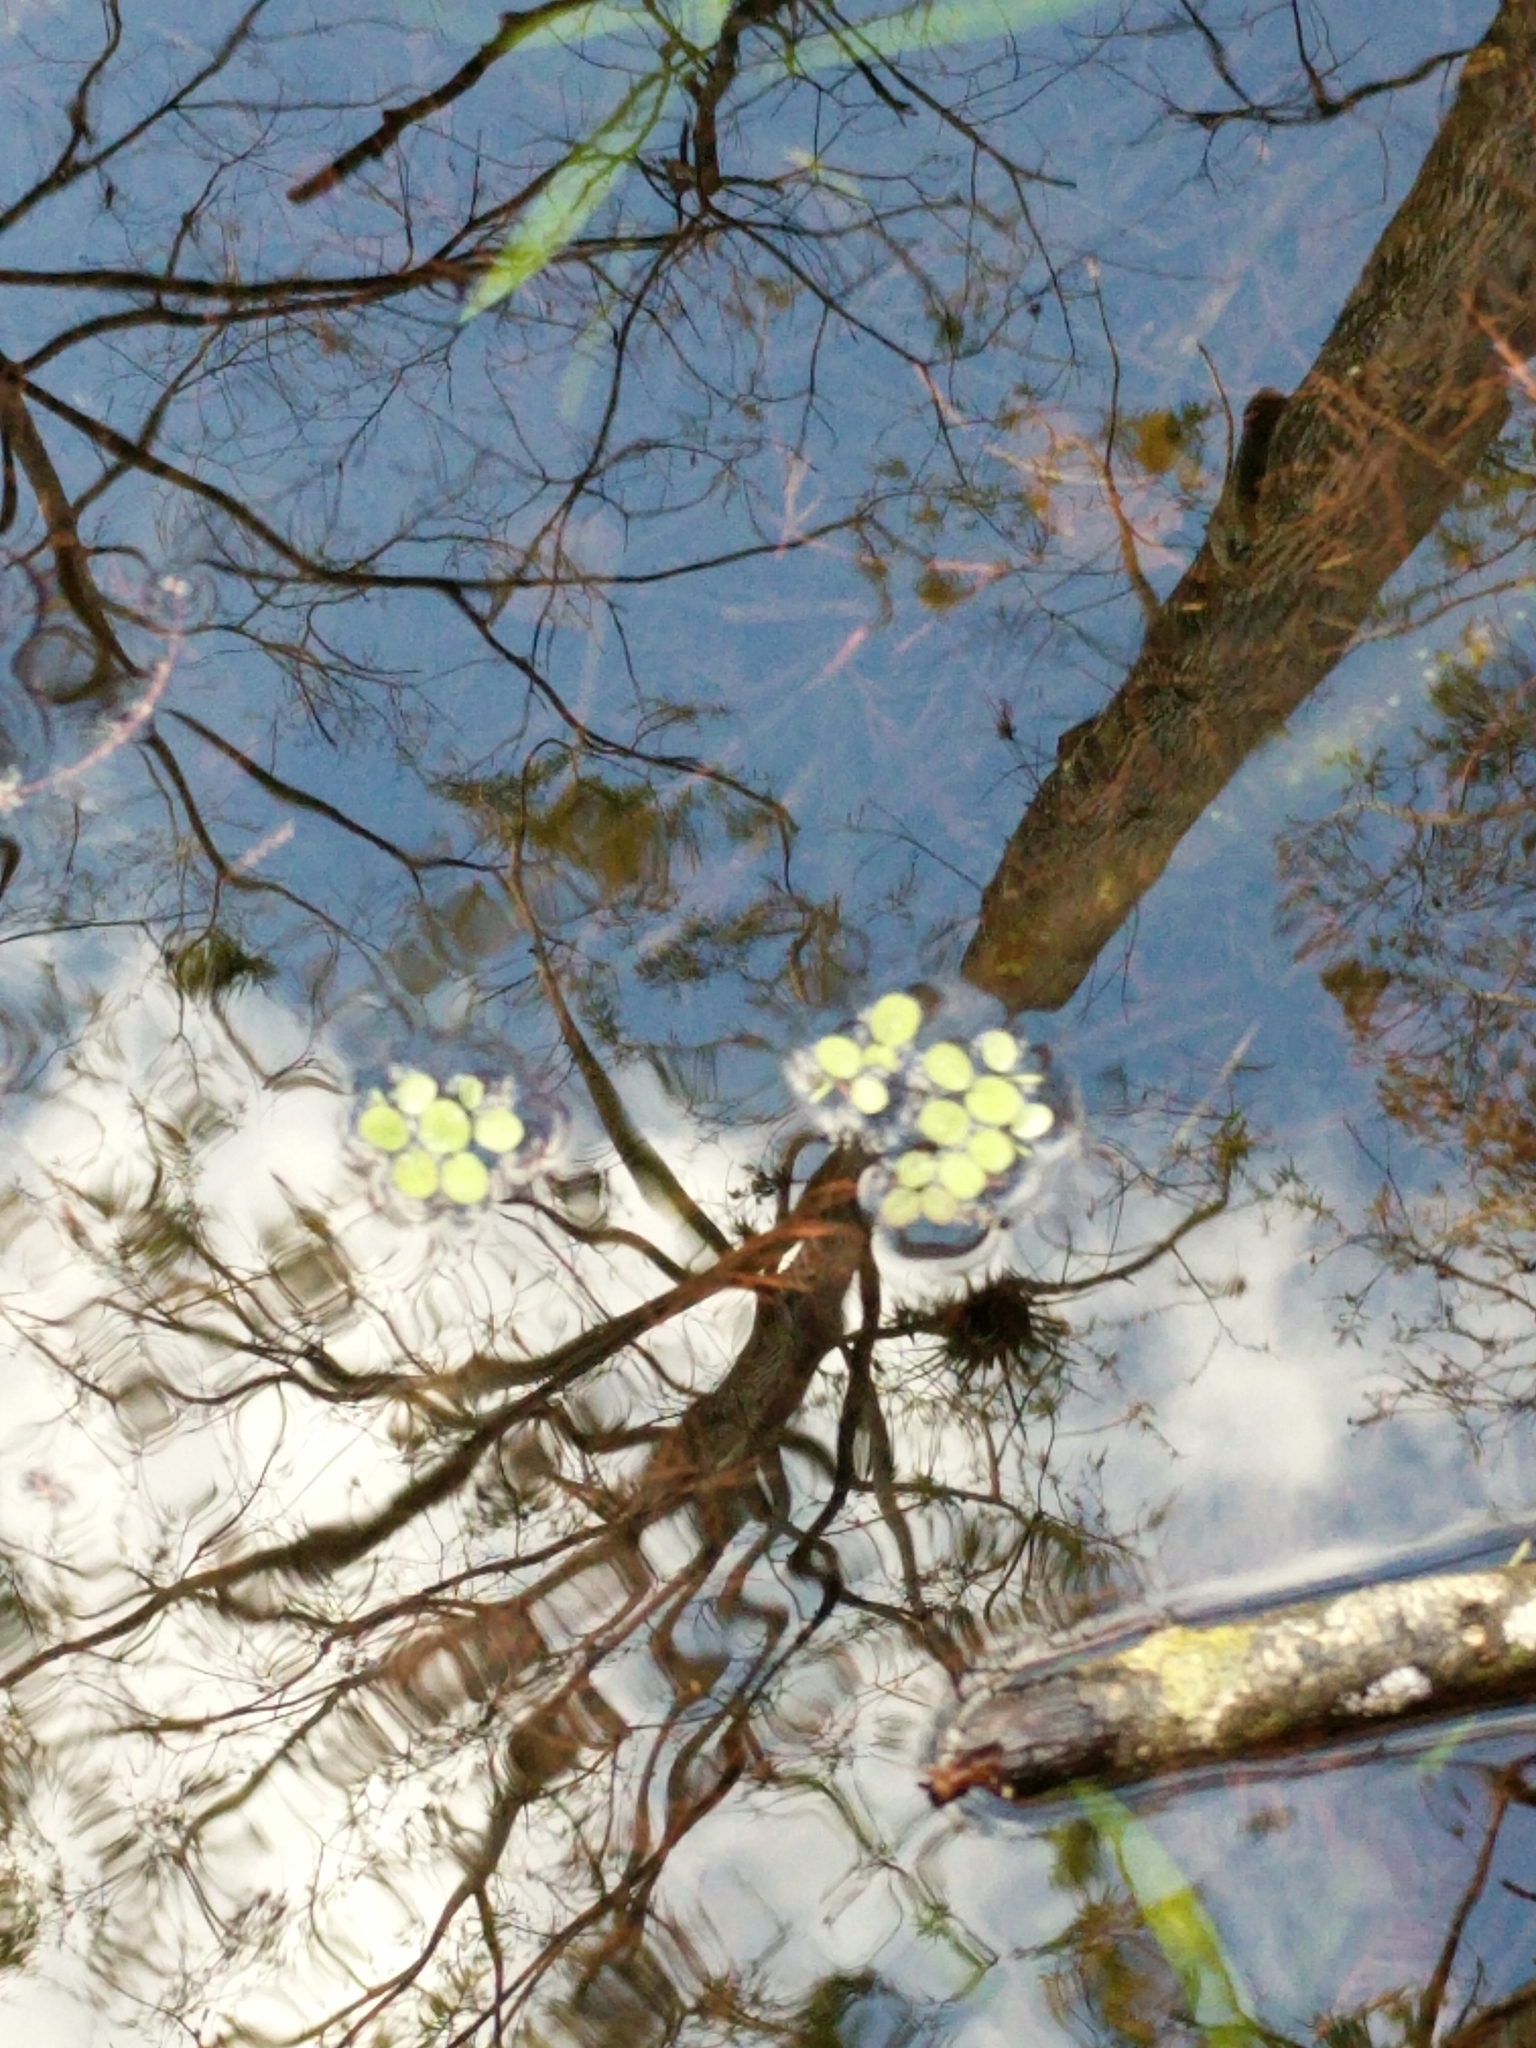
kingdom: Plantae
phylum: Tracheophyta
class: Polypodiopsida
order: Salviniales
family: Salviniaceae
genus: Salvinia
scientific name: Salvinia minima
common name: Water spangles
